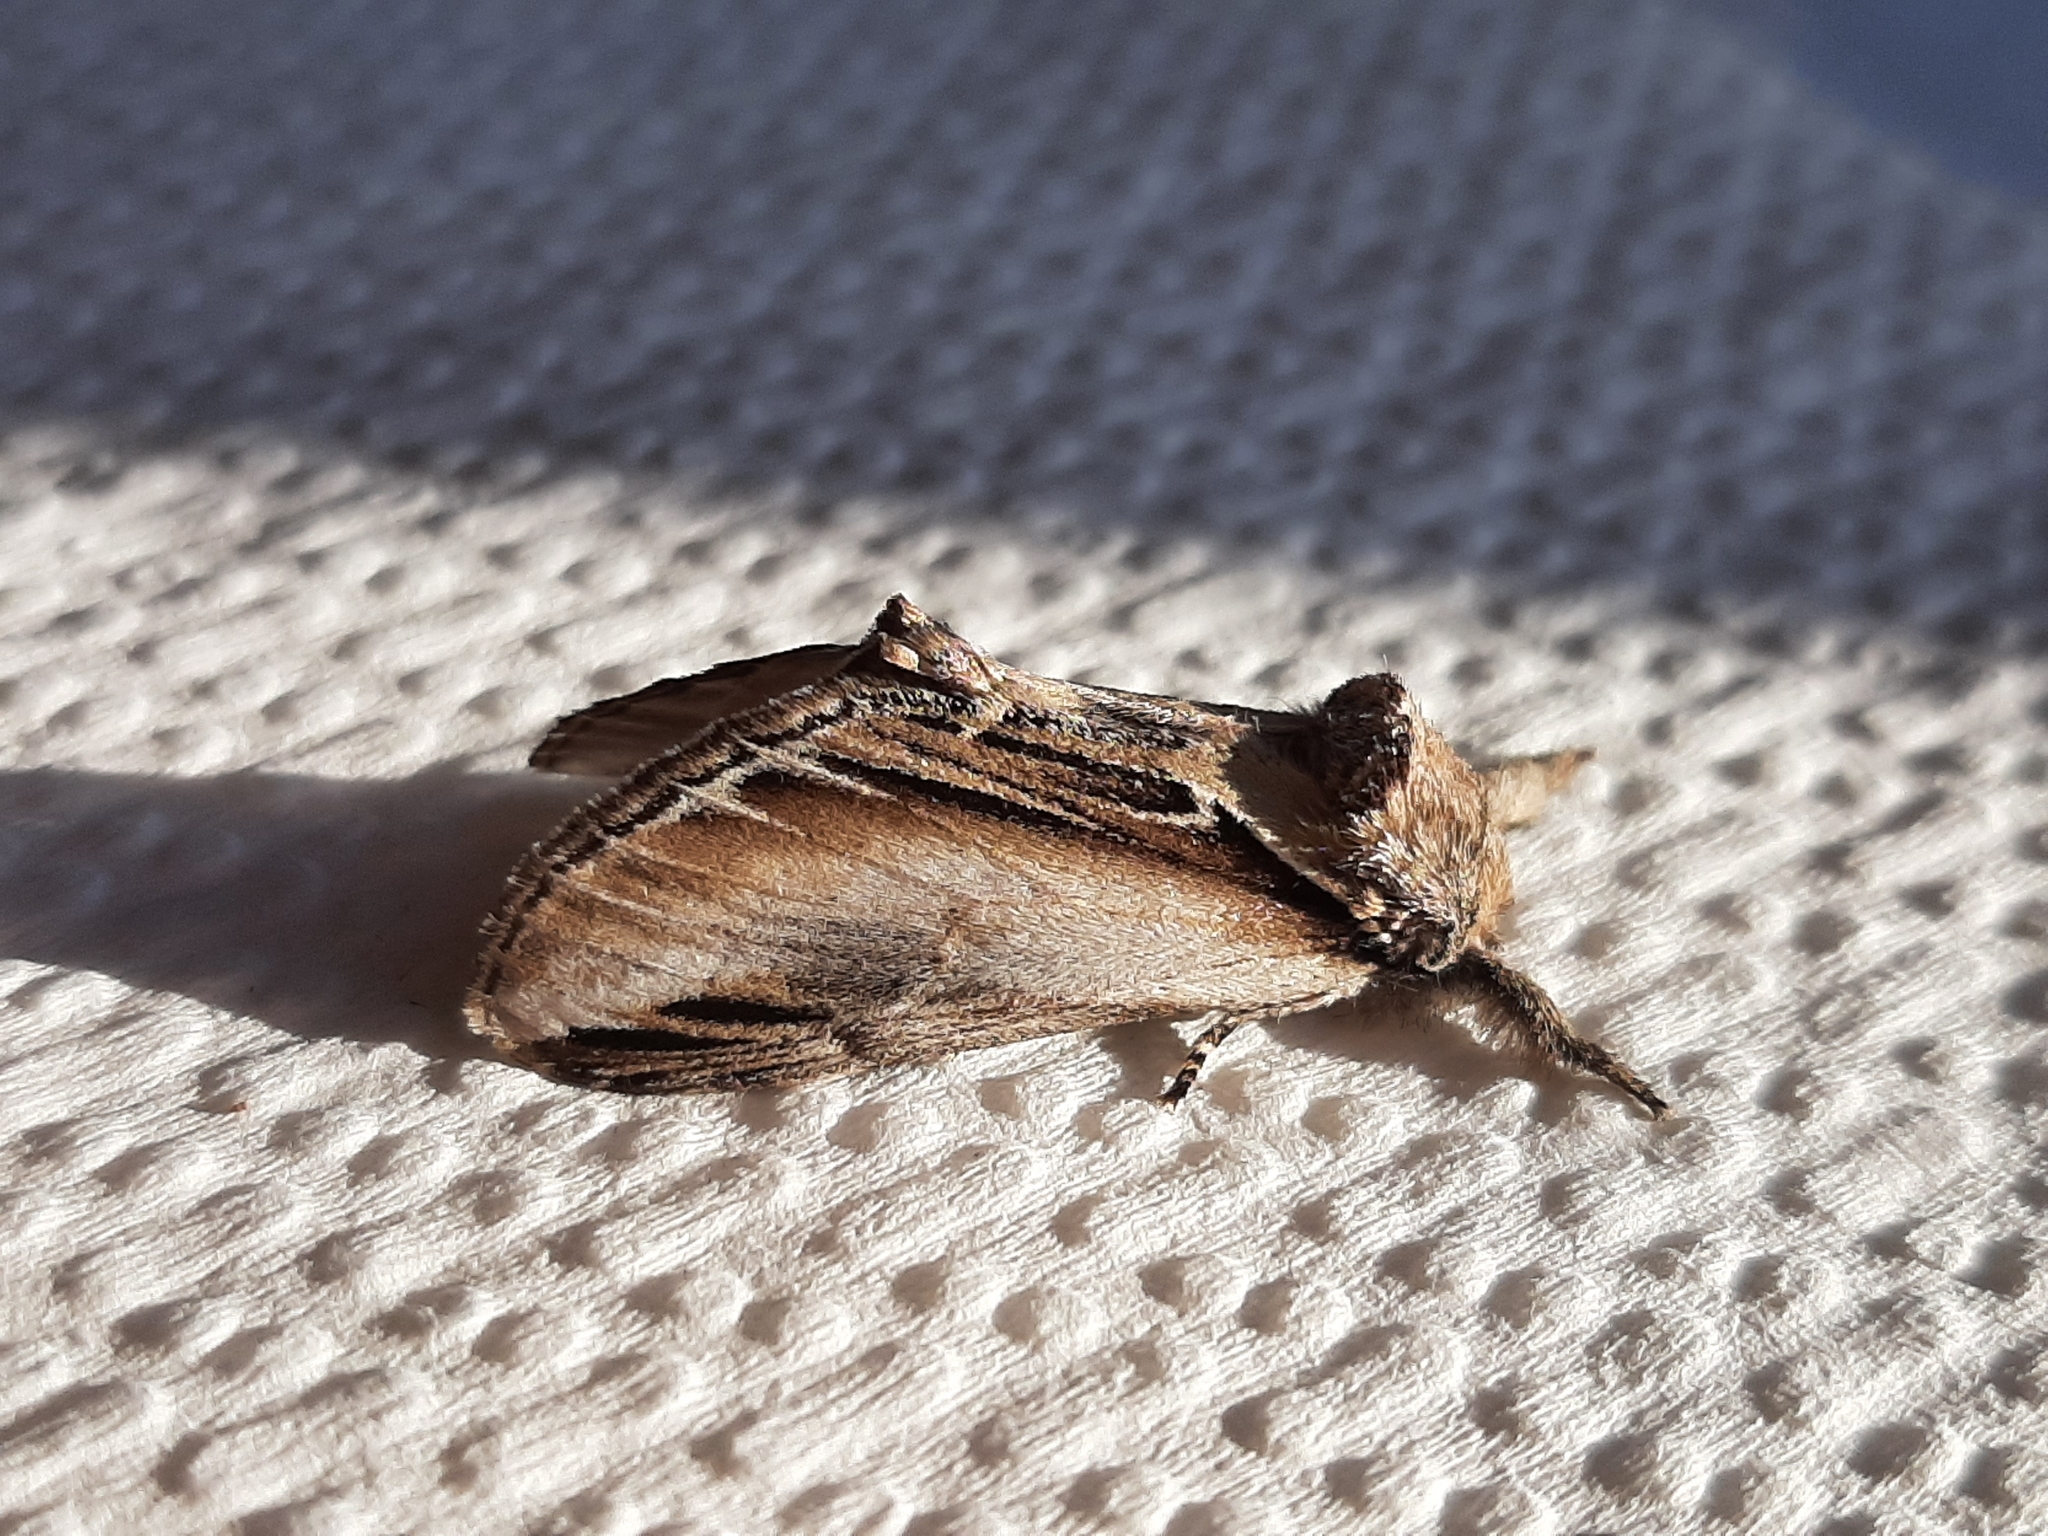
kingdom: Animalia
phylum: Arthropoda
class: Insecta
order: Lepidoptera
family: Notodontidae
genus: Pheosia
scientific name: Pheosia rimosa
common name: Black-rimmed prominent
